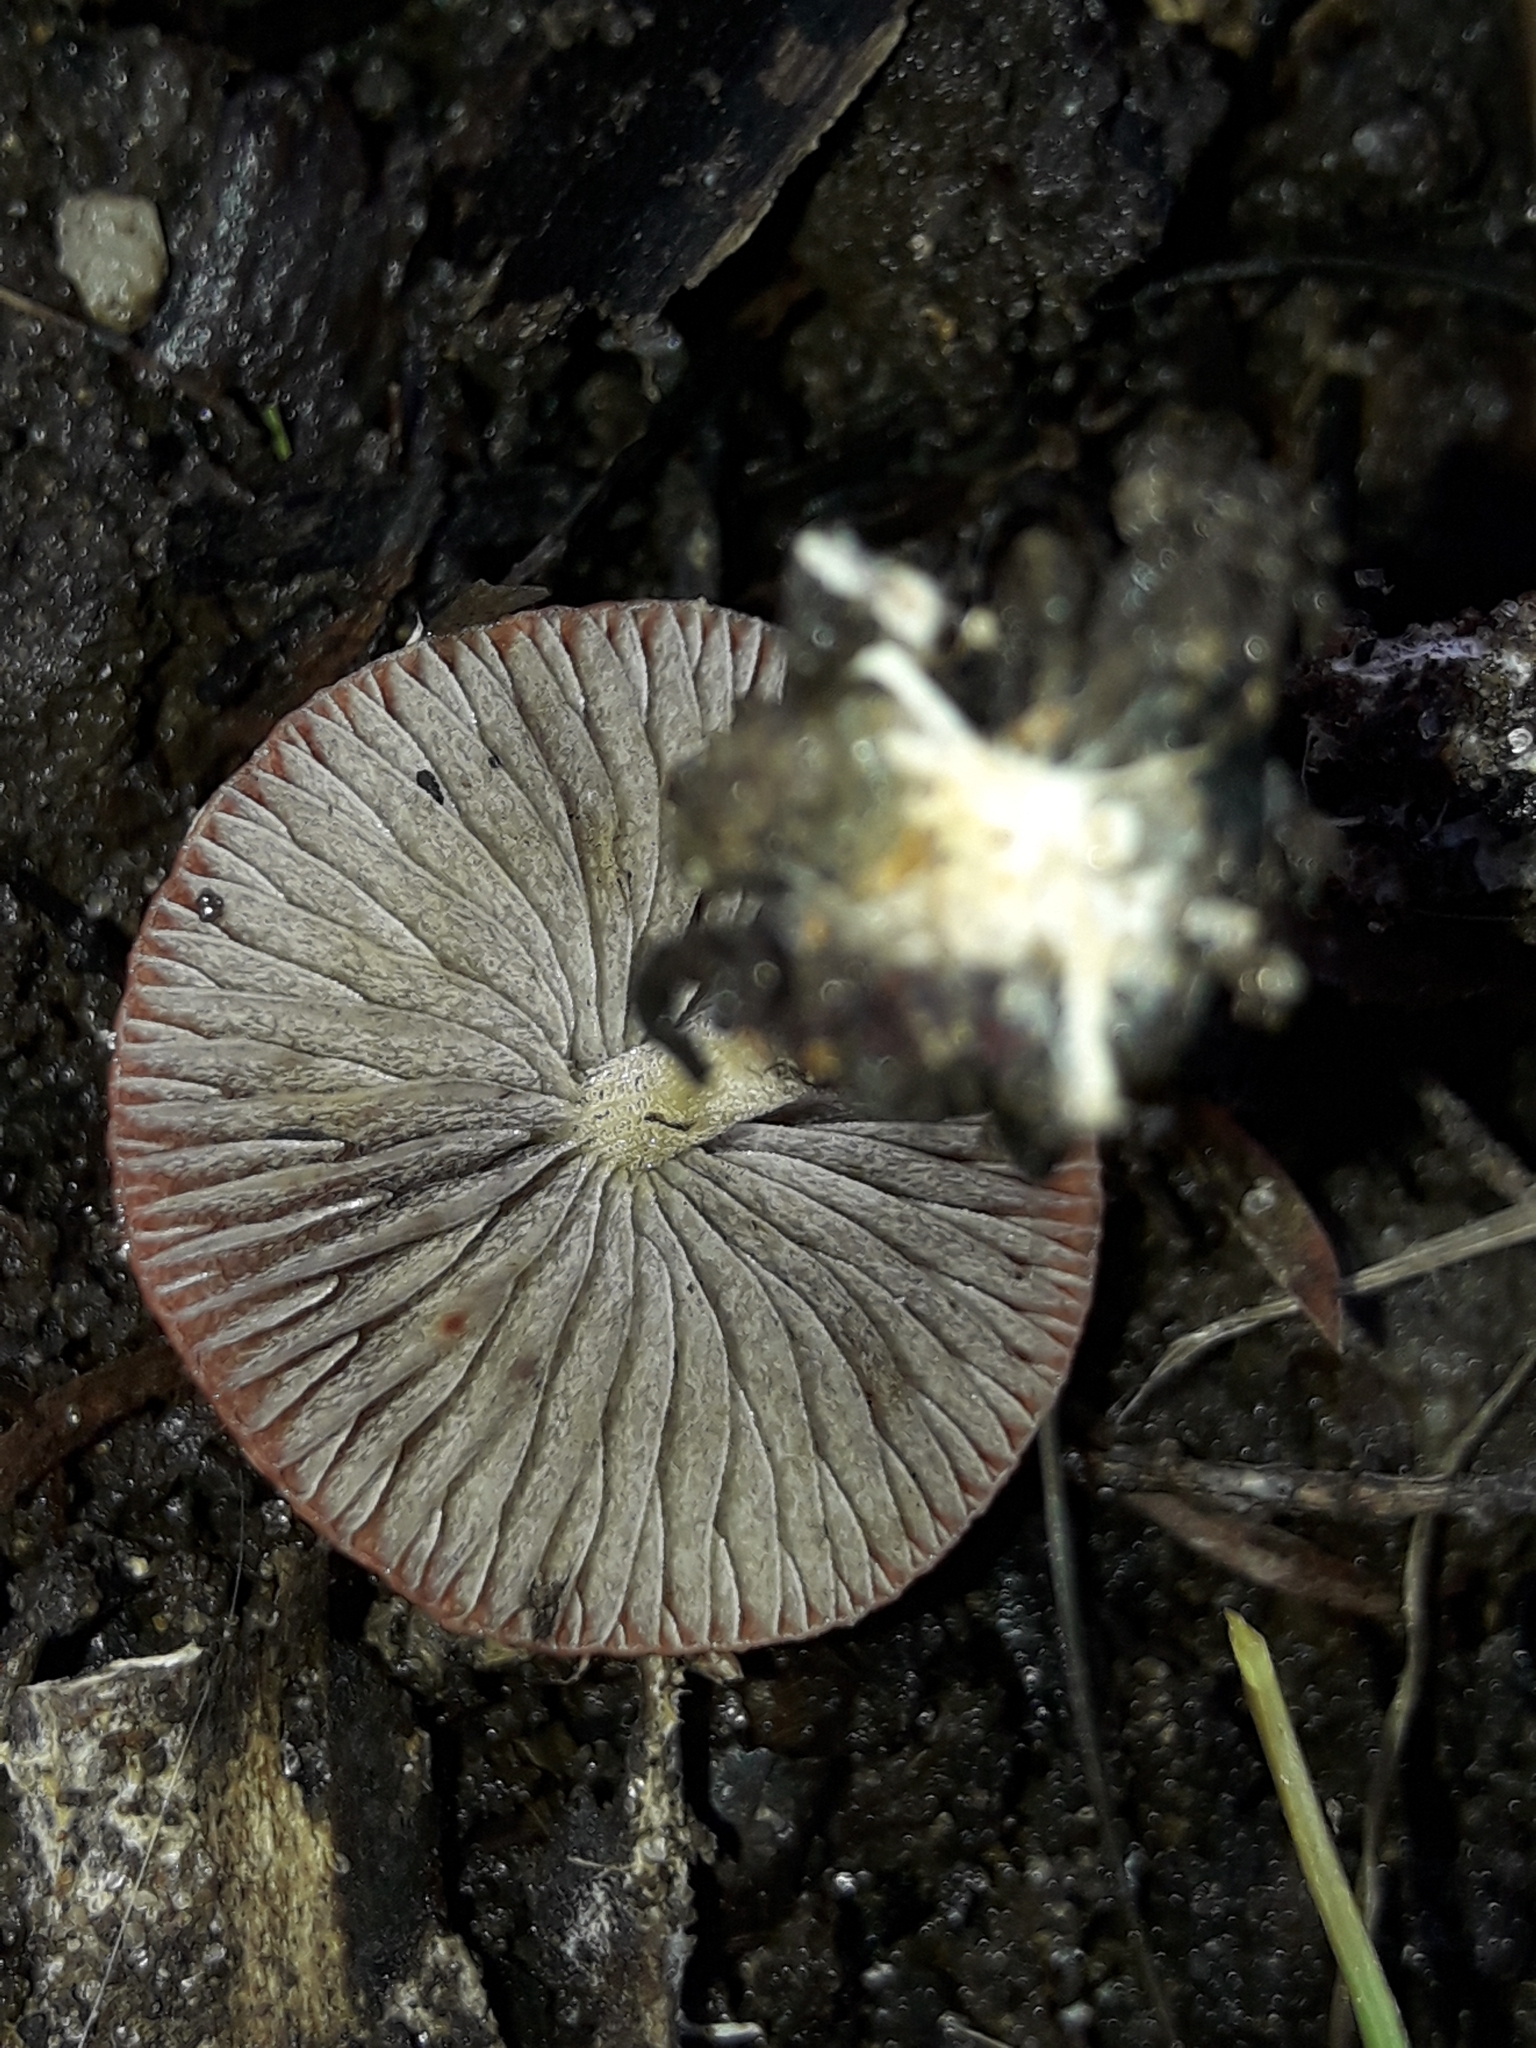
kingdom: Fungi
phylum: Basidiomycota
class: Agaricomycetes
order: Agaricales
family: Strophariaceae
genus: Leratiomyces
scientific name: Leratiomyces ceres
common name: Redlead roundhead
